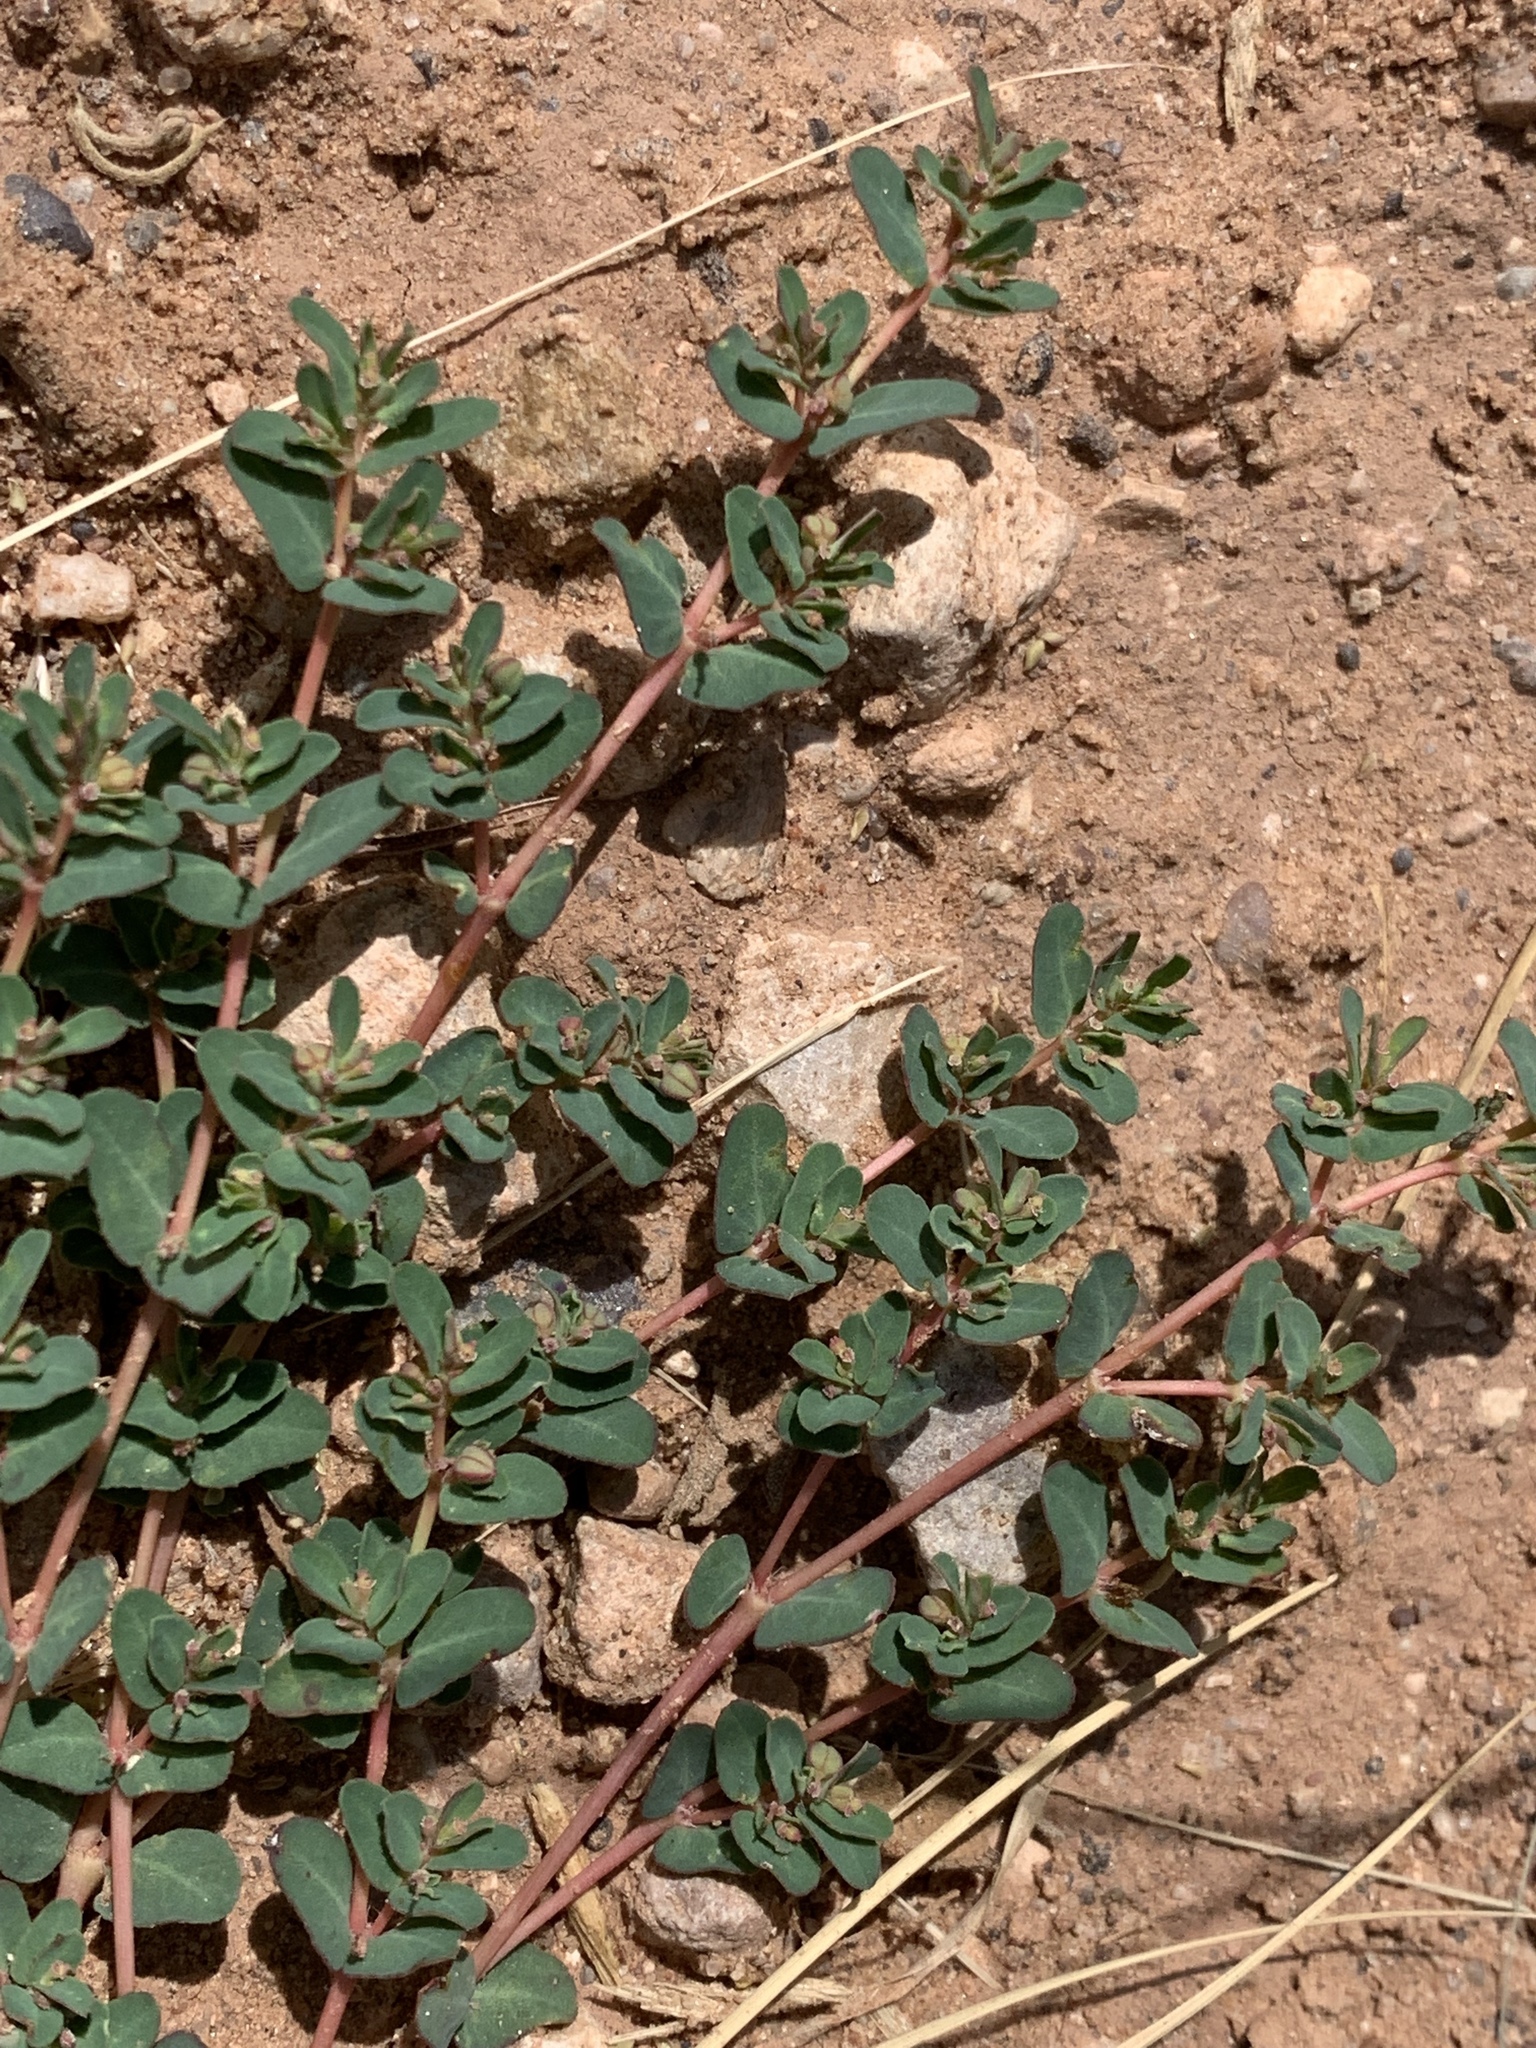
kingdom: Plantae
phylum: Tracheophyta
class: Magnoliopsida
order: Malpighiales
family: Euphorbiaceae
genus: Euphorbia
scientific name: Euphorbia glyptosperma
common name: Corrugate-seeded spurge
